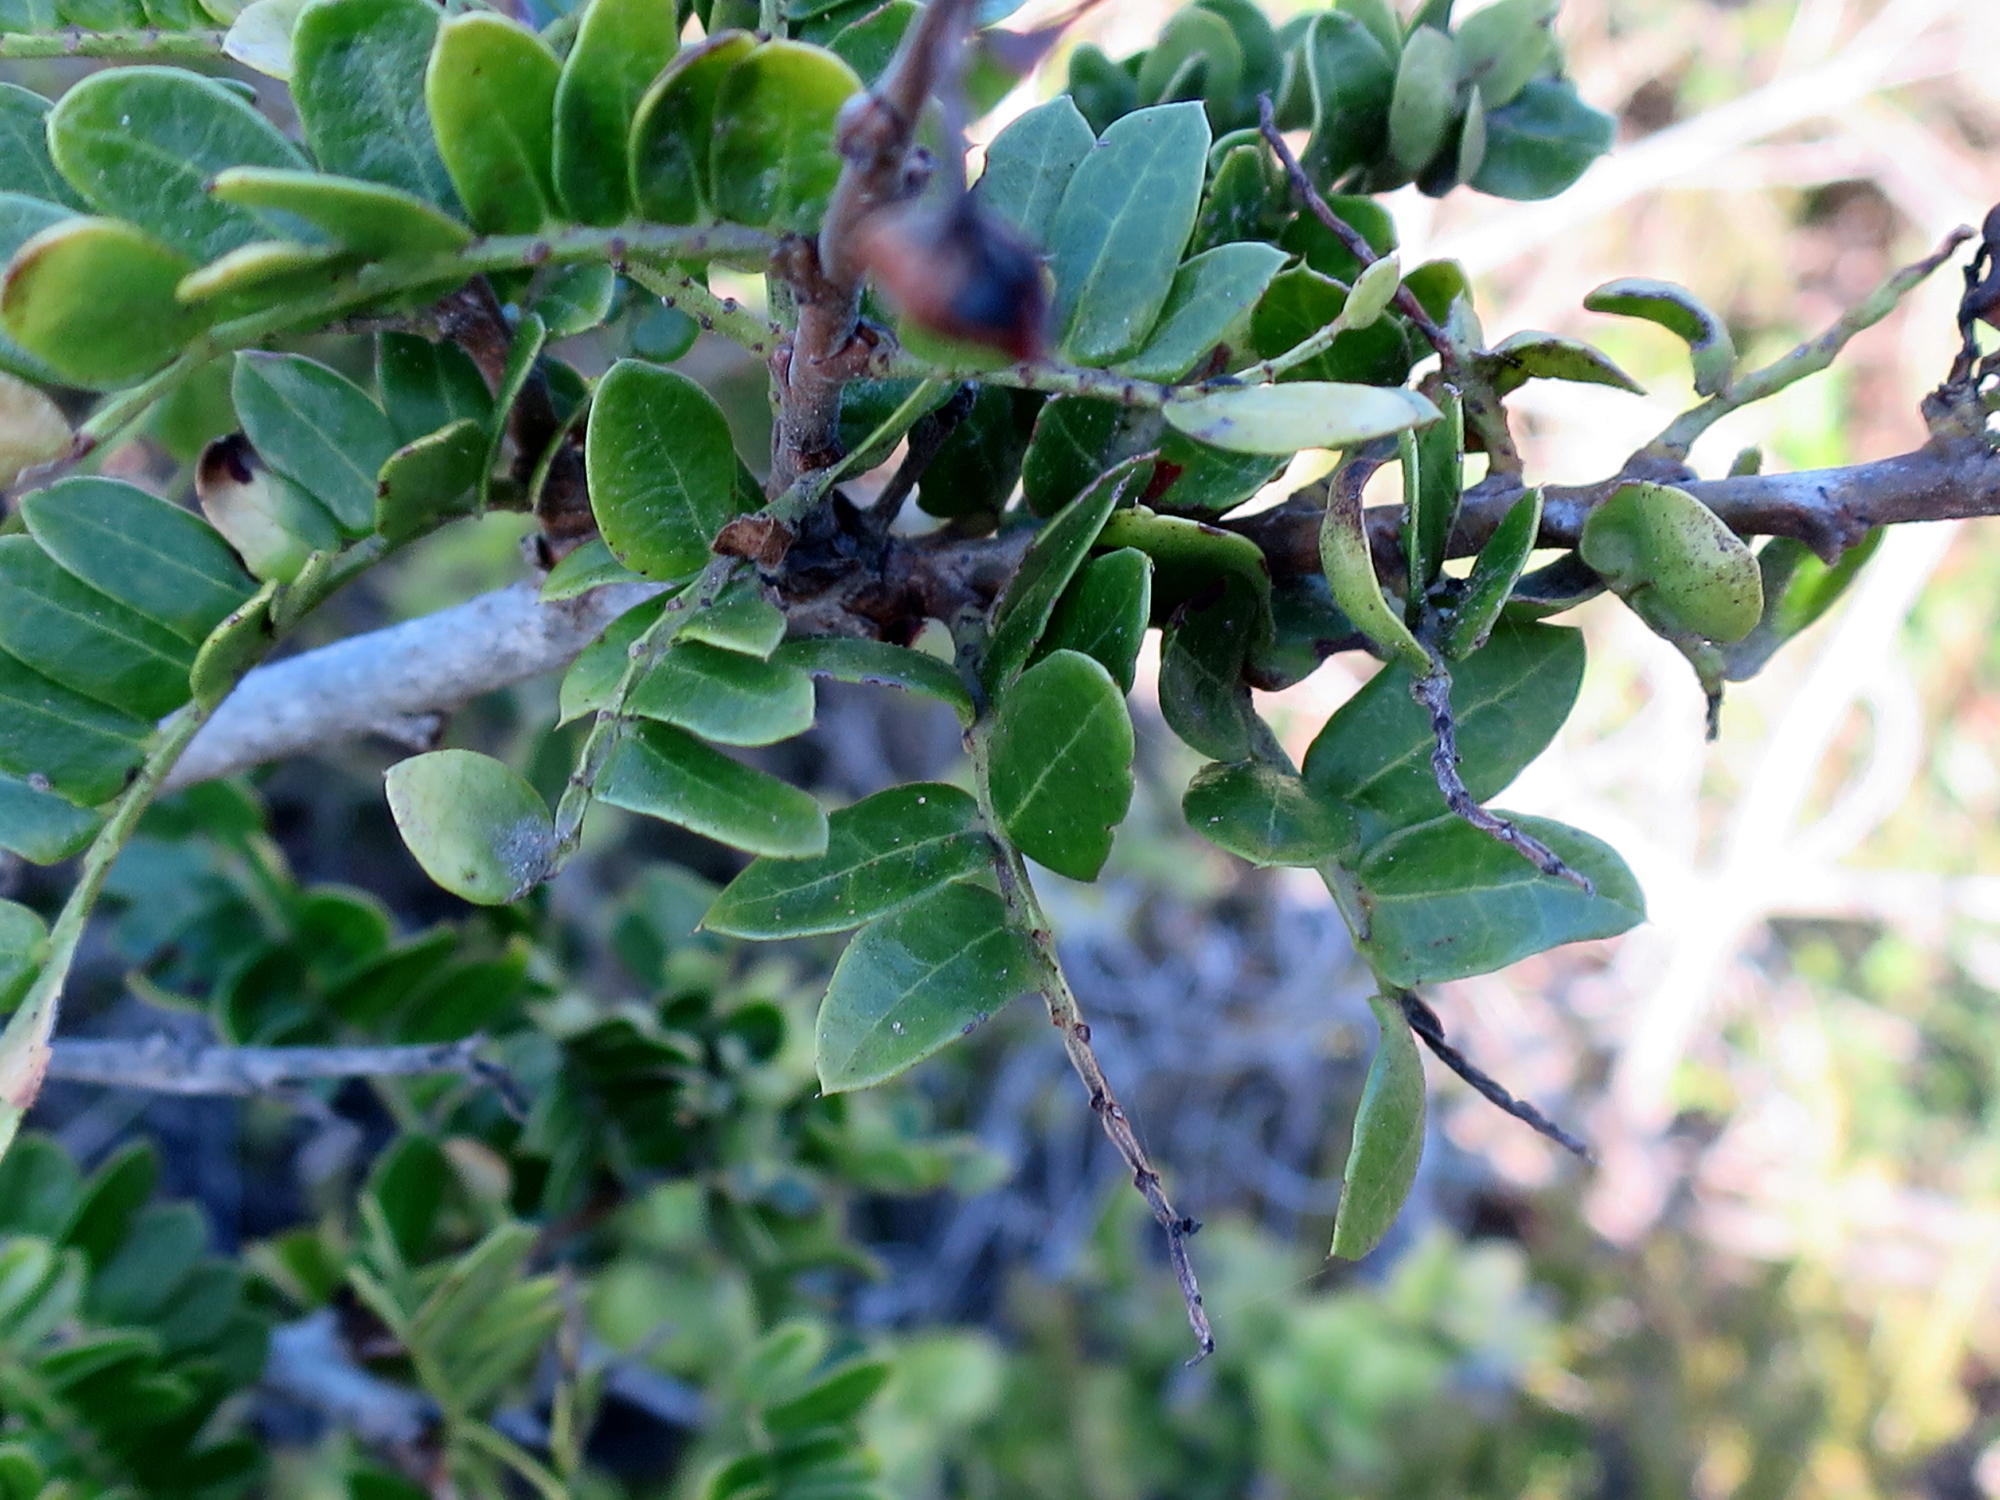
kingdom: Plantae
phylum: Tracheophyta
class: Magnoliopsida
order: Fabales
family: Fabaceae
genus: Schotia
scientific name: Schotia afra
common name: Hottentot's bean
